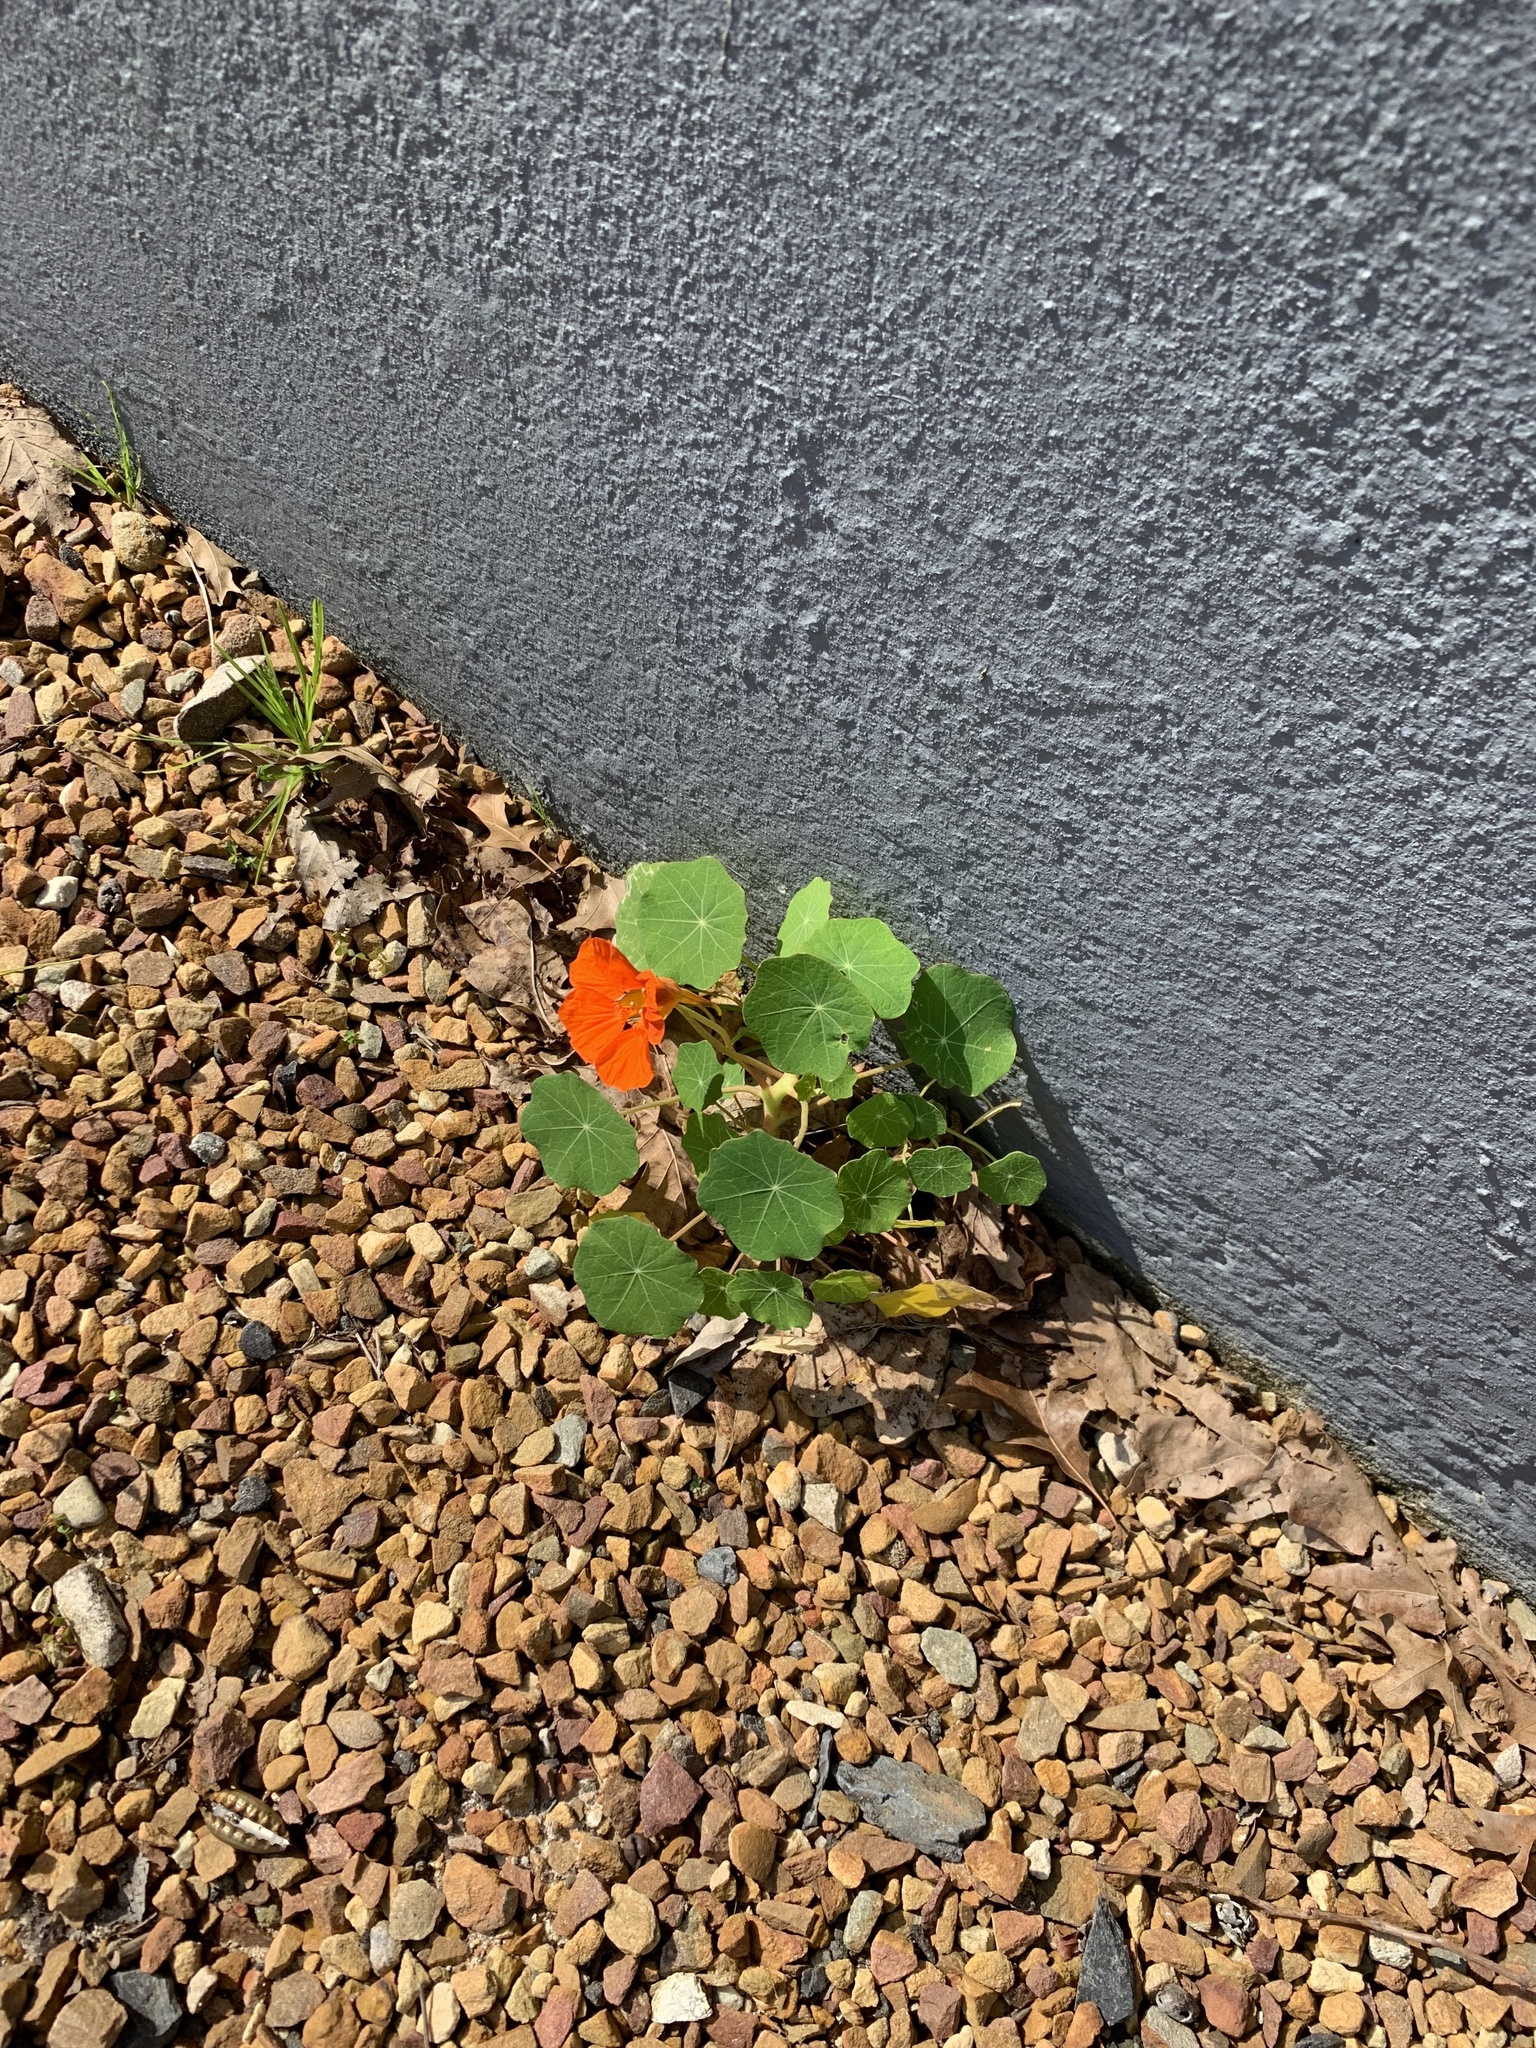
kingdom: Plantae
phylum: Tracheophyta
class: Magnoliopsida
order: Brassicales
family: Tropaeolaceae
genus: Tropaeolum
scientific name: Tropaeolum majus
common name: Nasturtium
